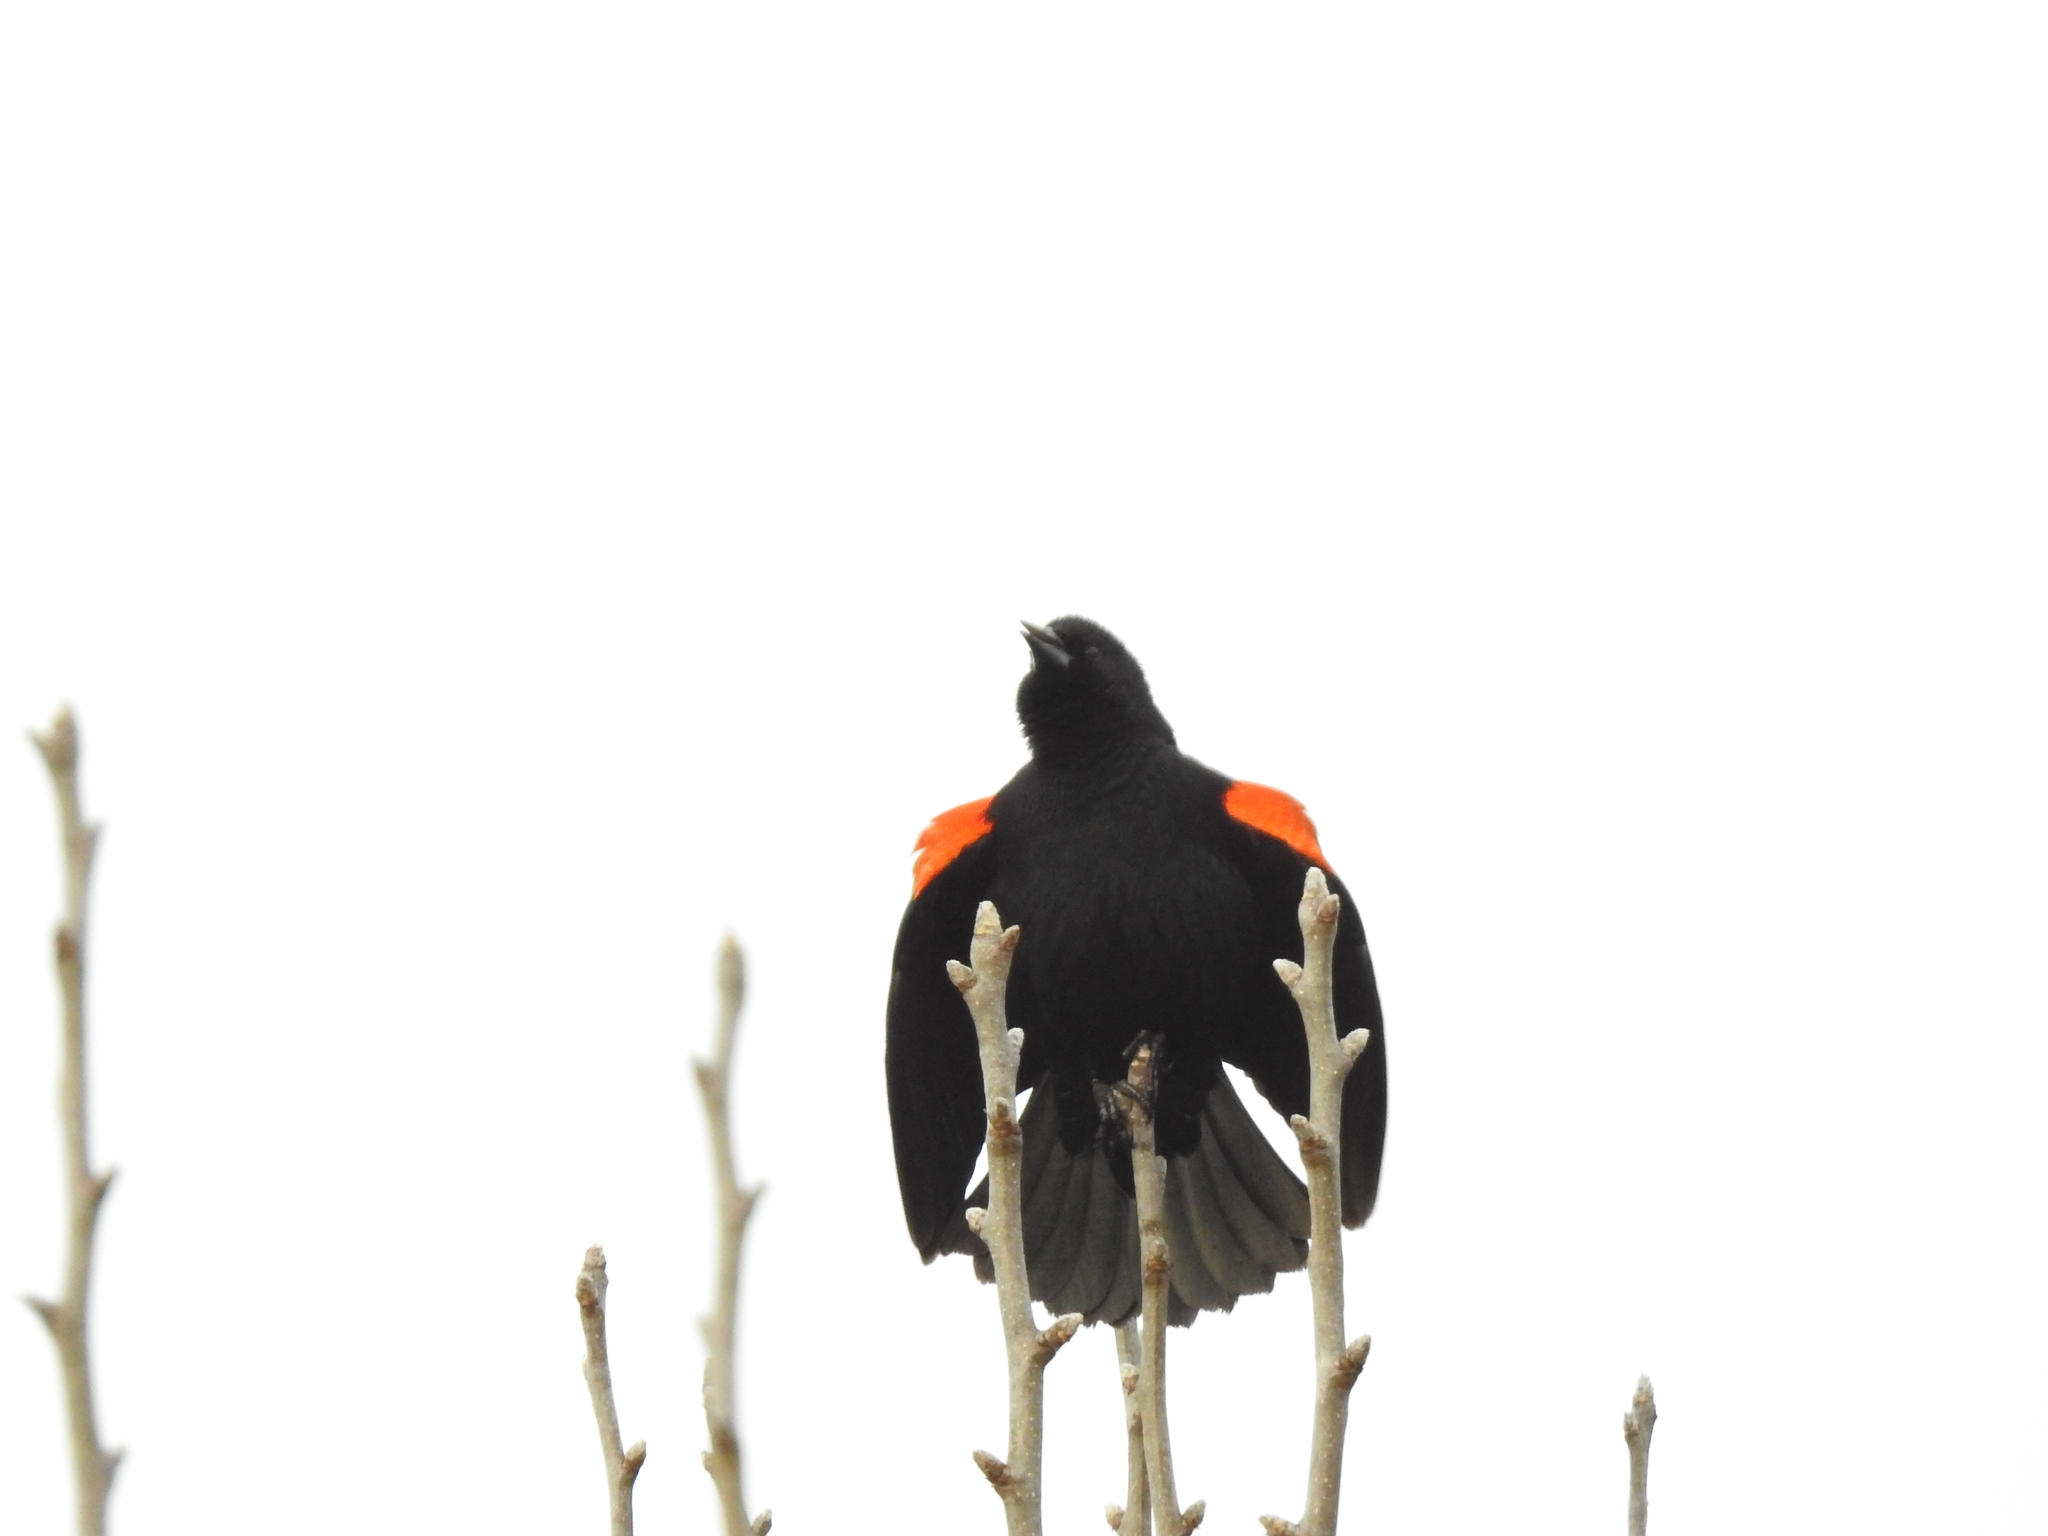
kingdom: Animalia
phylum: Chordata
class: Aves
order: Passeriformes
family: Icteridae
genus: Agelaius
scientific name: Agelaius phoeniceus
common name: Red-winged blackbird
